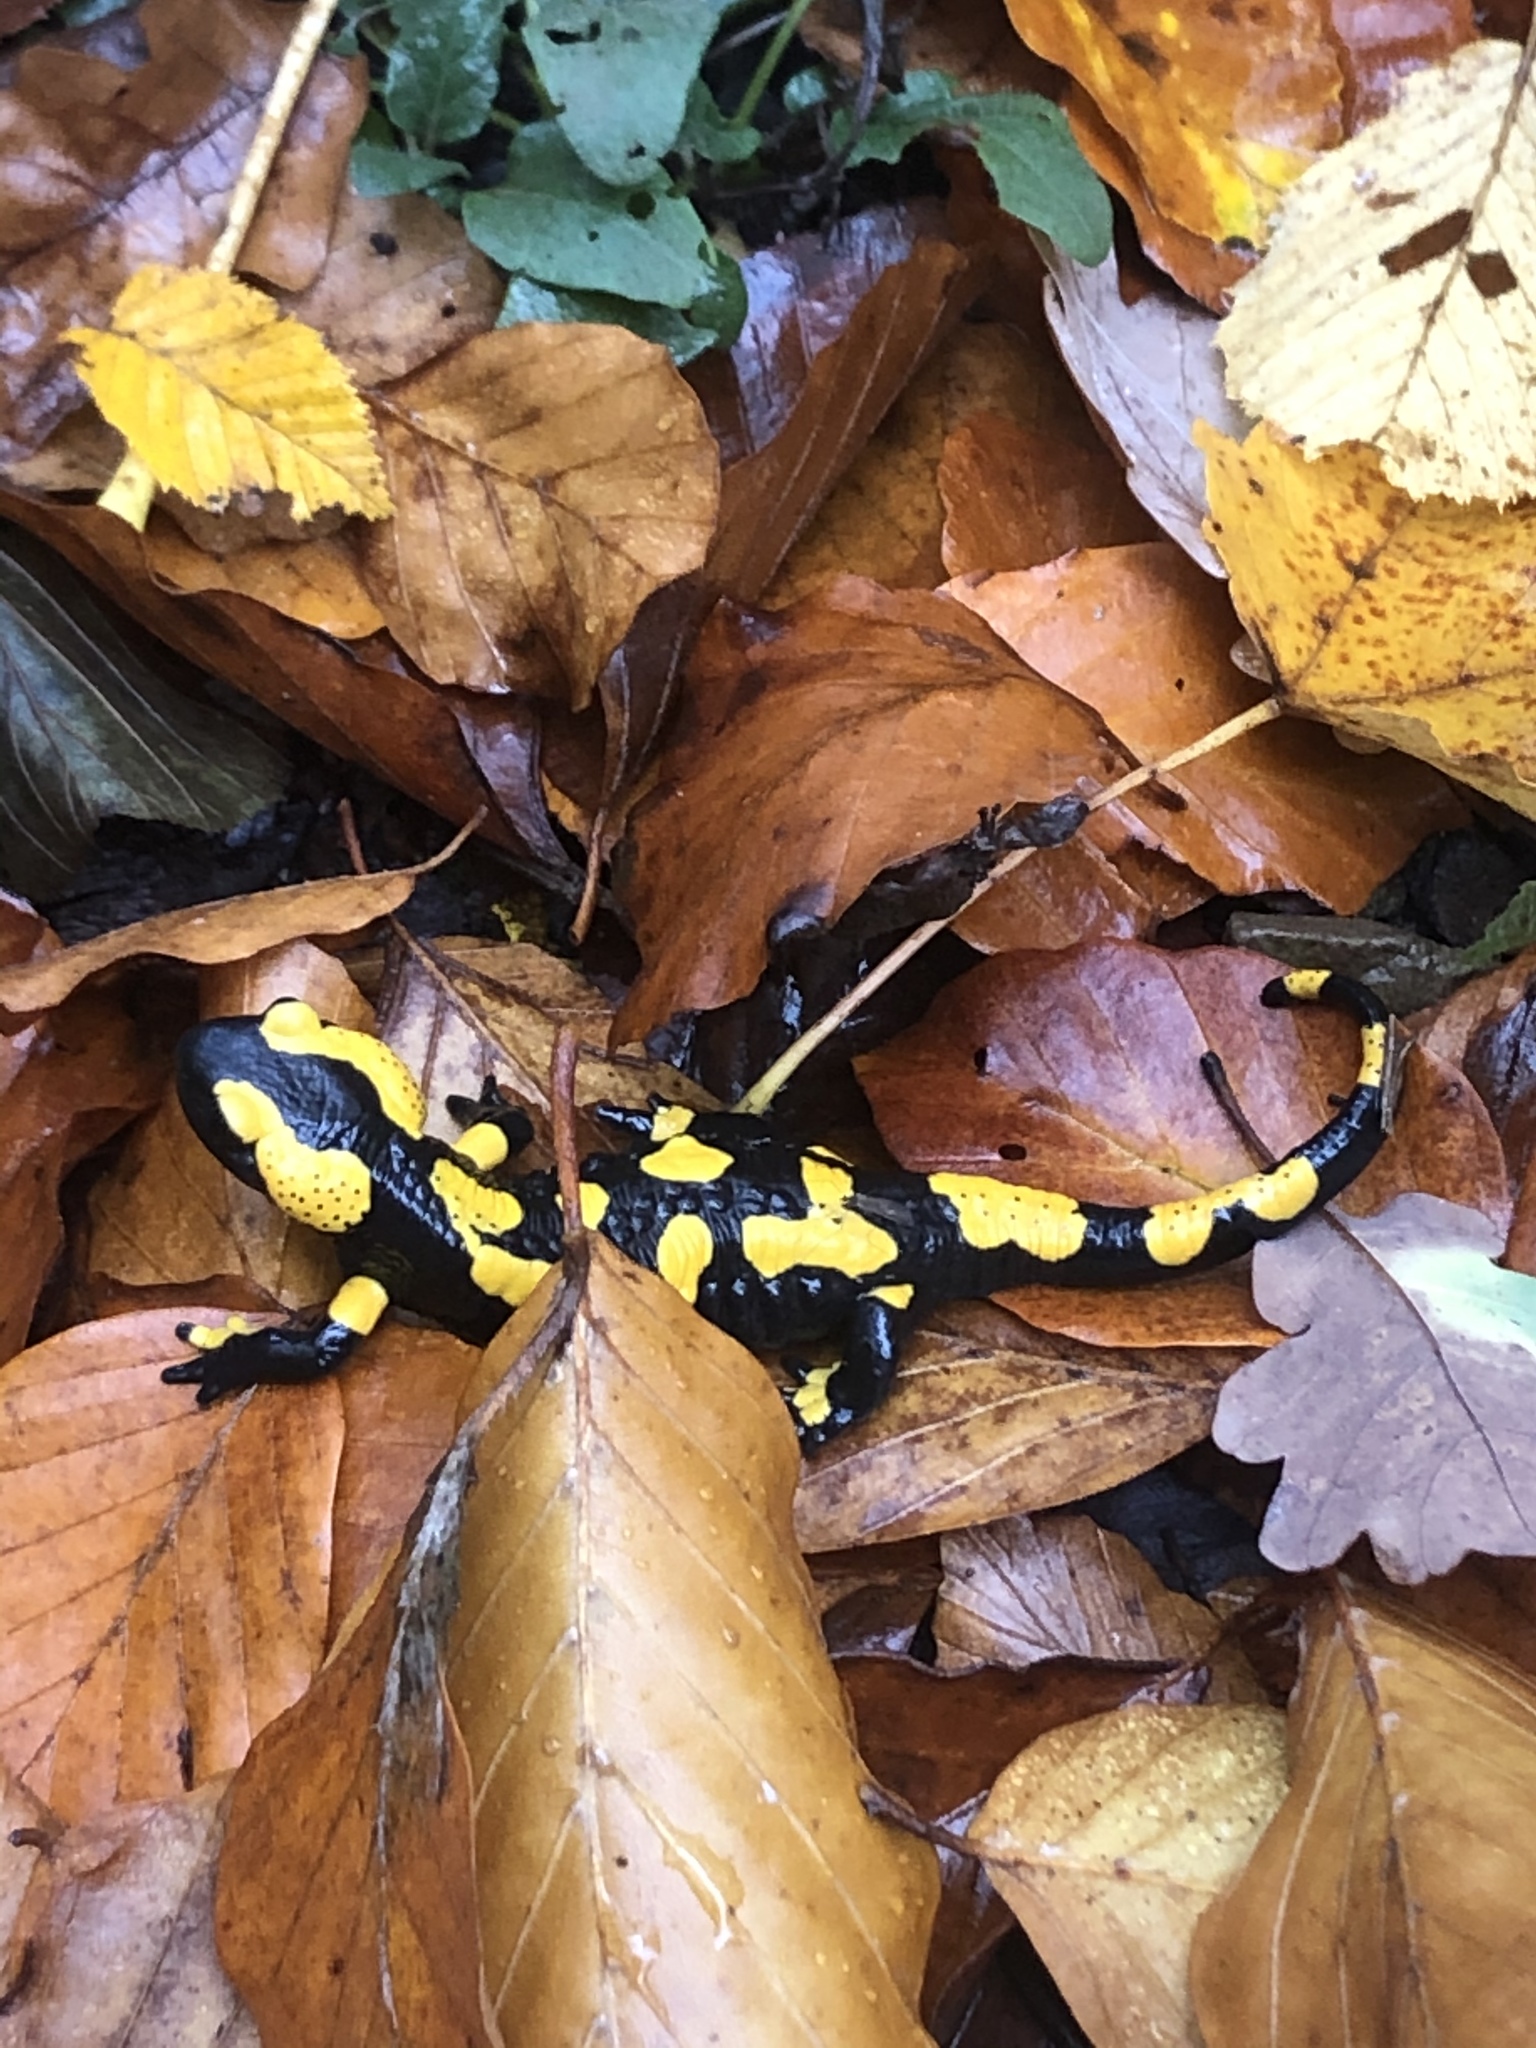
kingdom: Animalia
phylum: Chordata
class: Amphibia
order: Caudata
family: Salamandridae
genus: Salamandra
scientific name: Salamandra salamandra
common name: Fire salamander
